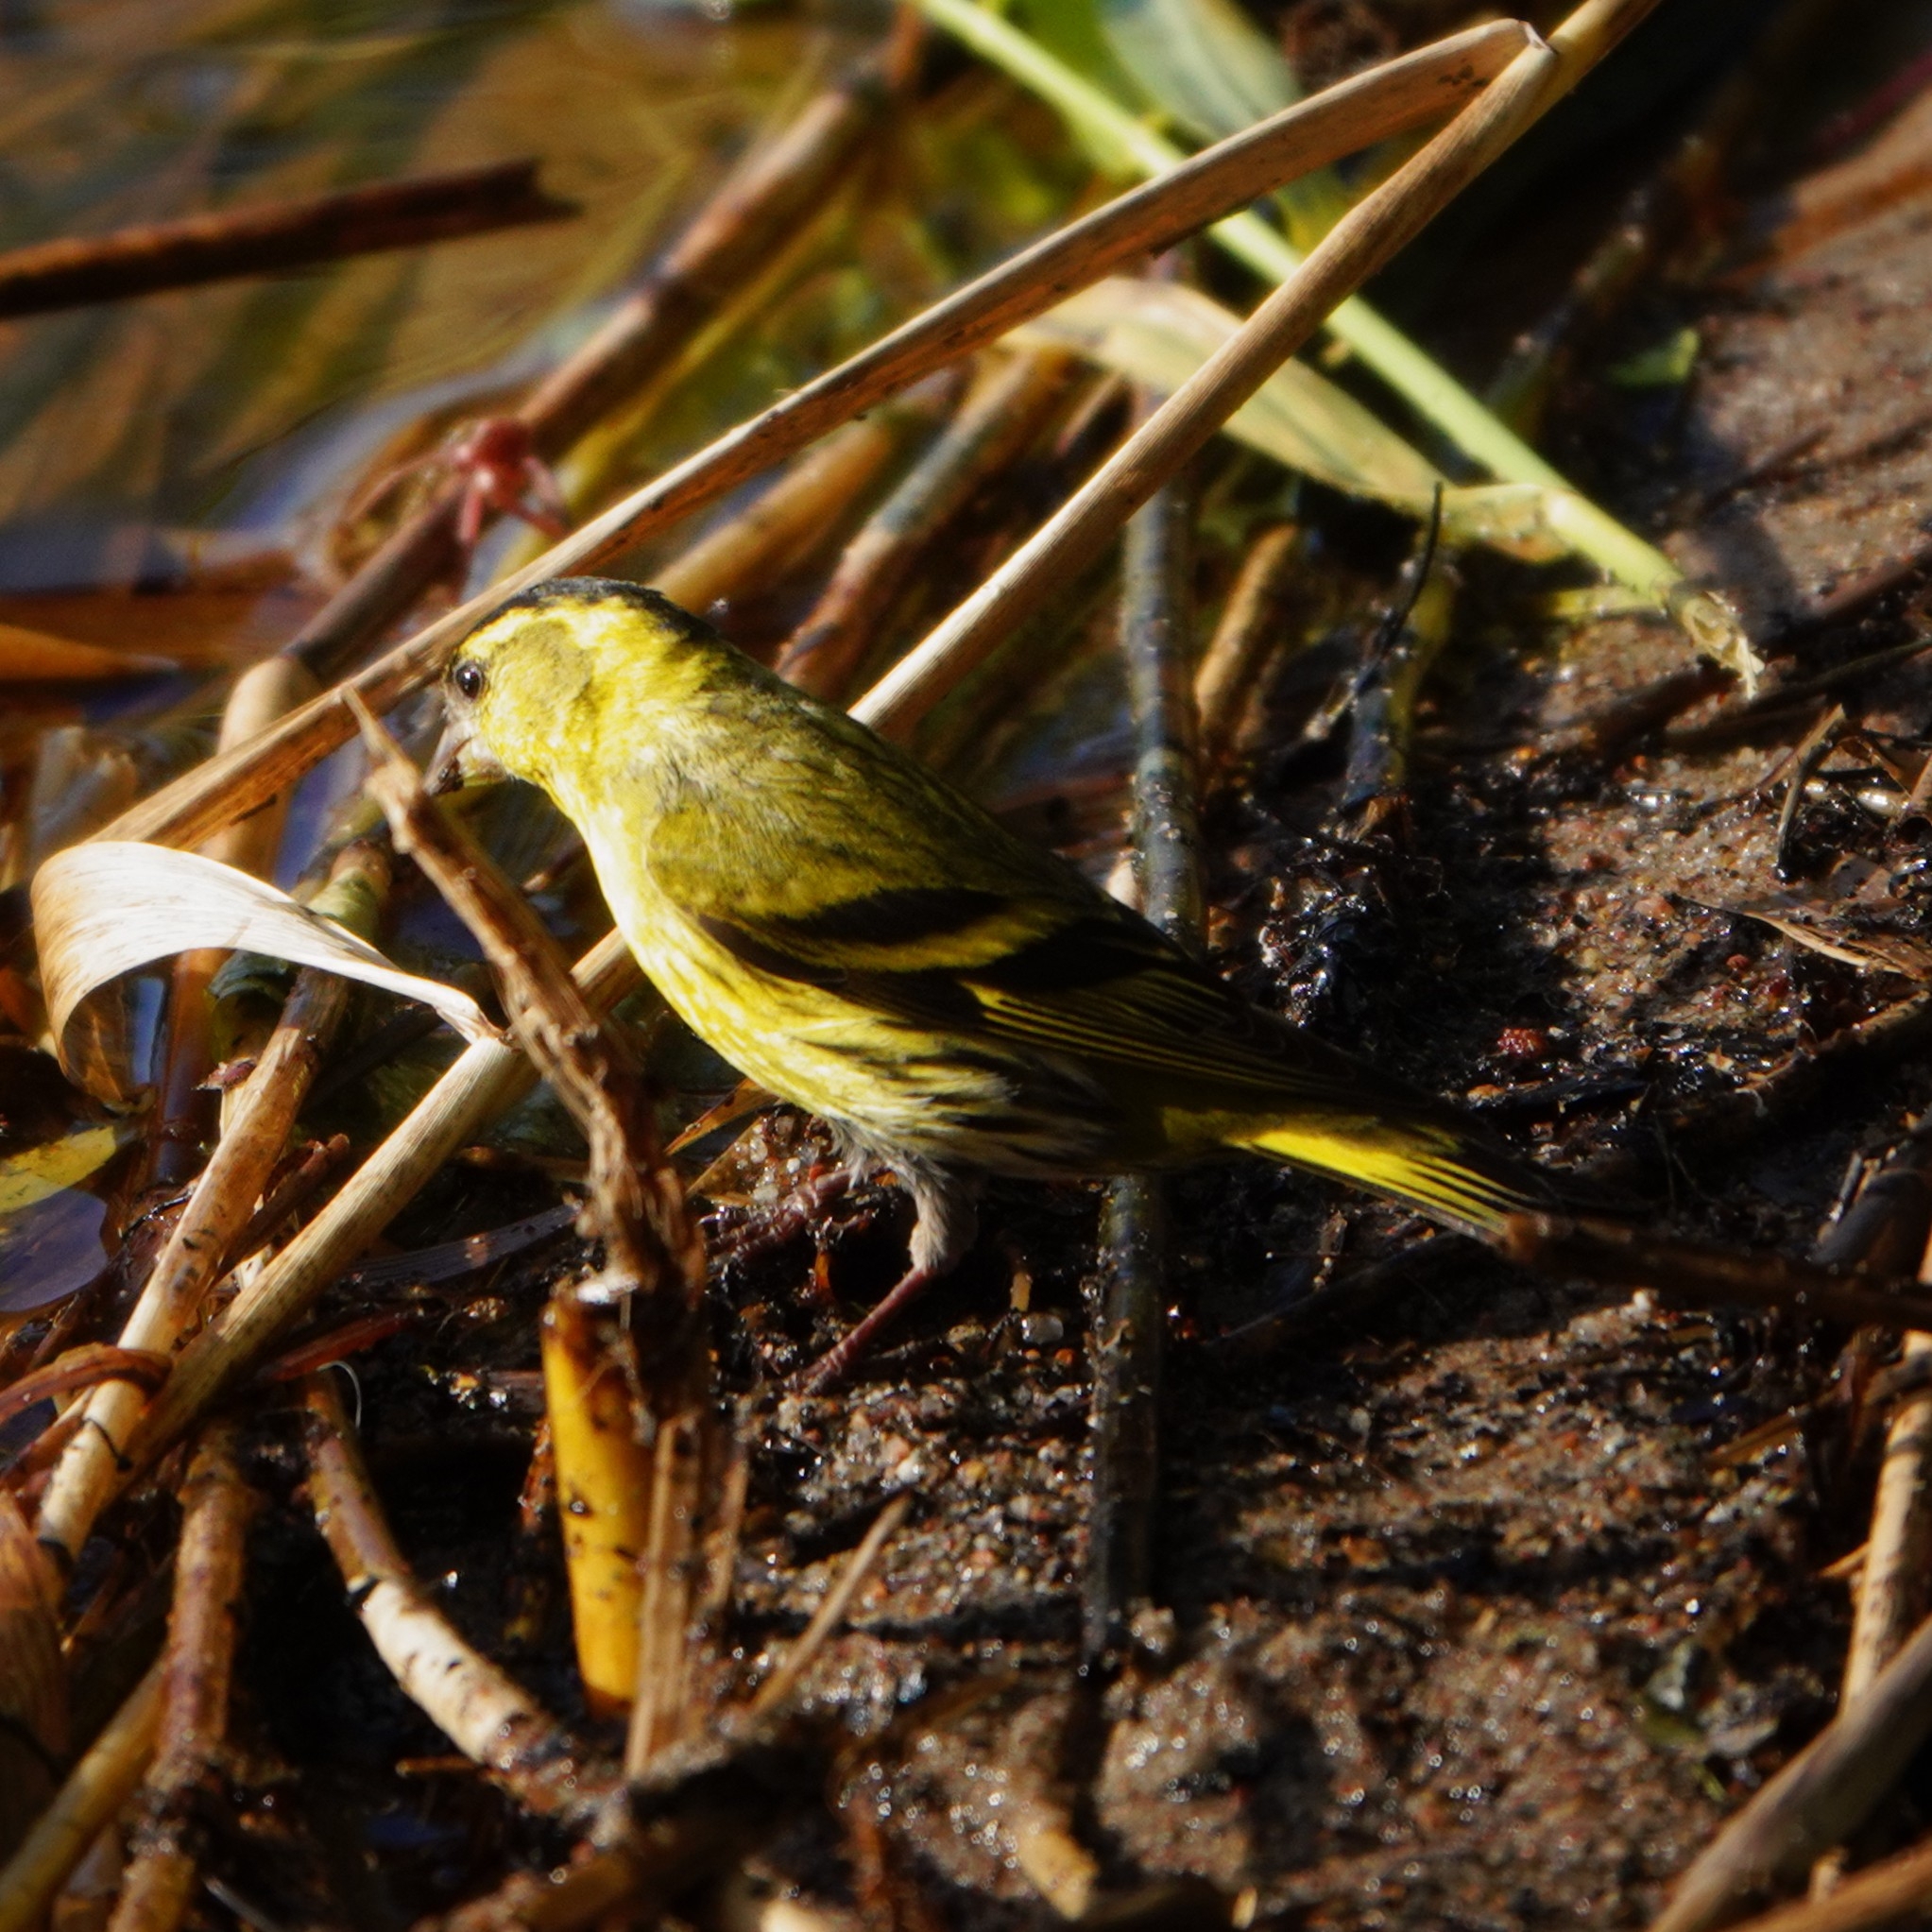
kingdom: Animalia
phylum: Chordata
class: Aves
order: Passeriformes
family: Fringillidae
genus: Spinus
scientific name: Spinus spinus
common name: Eurasian siskin
